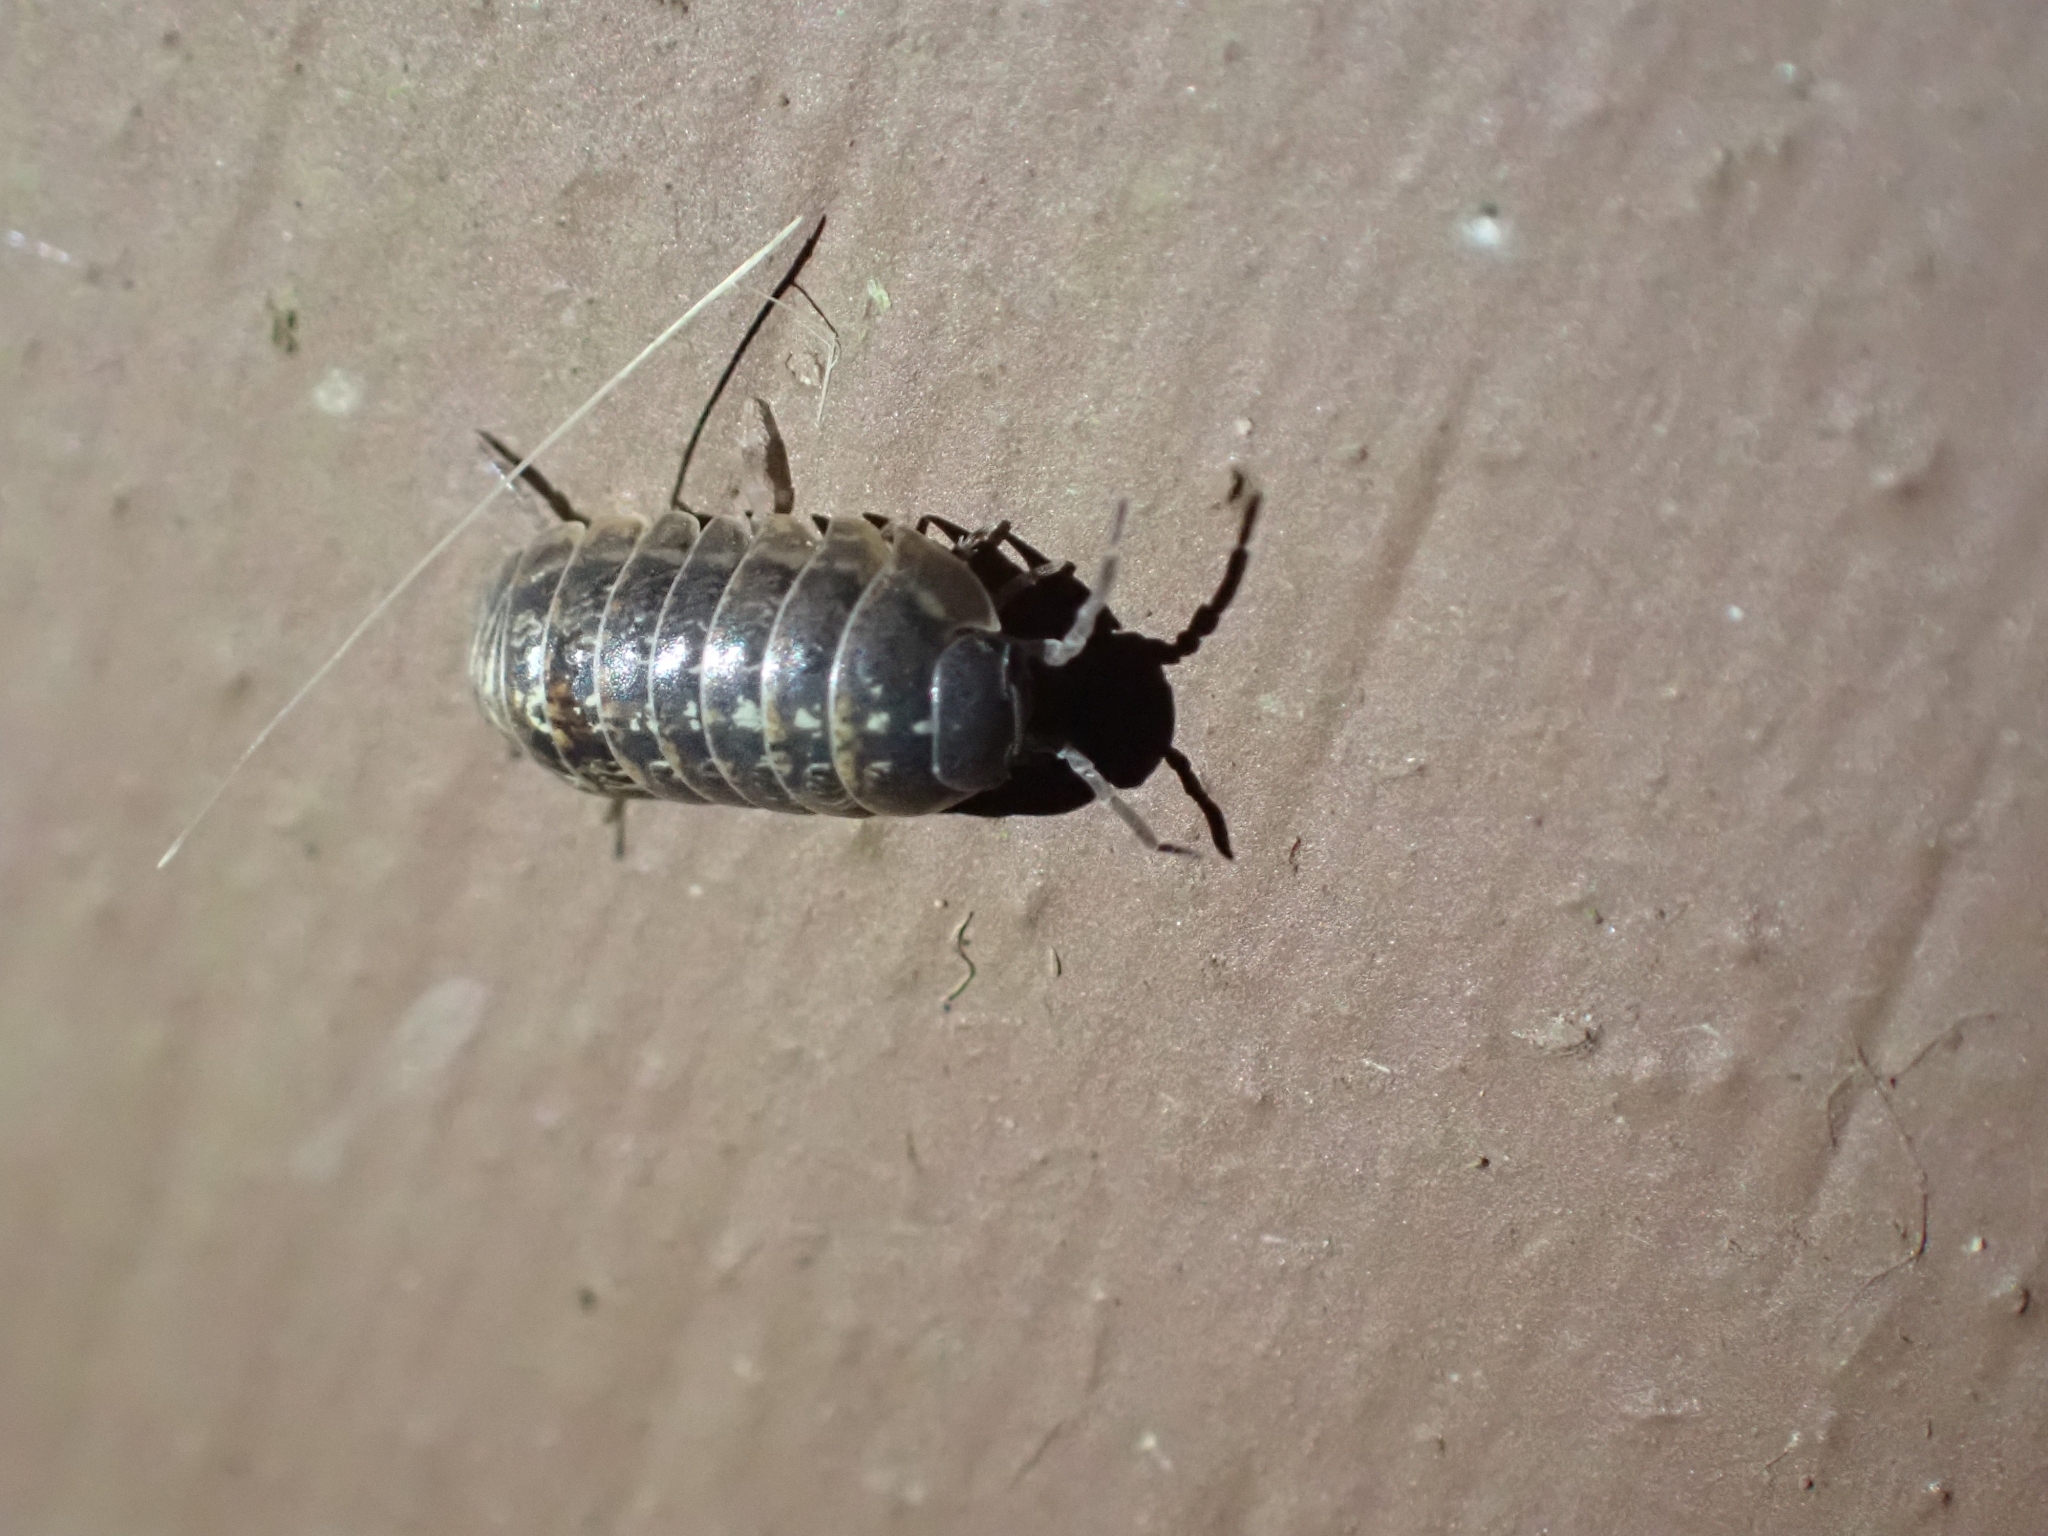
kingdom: Animalia
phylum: Arthropoda
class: Malacostraca
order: Isopoda
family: Armadillidiidae
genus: Armadillidium
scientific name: Armadillidium vulgare
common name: Common pill woodlouse
